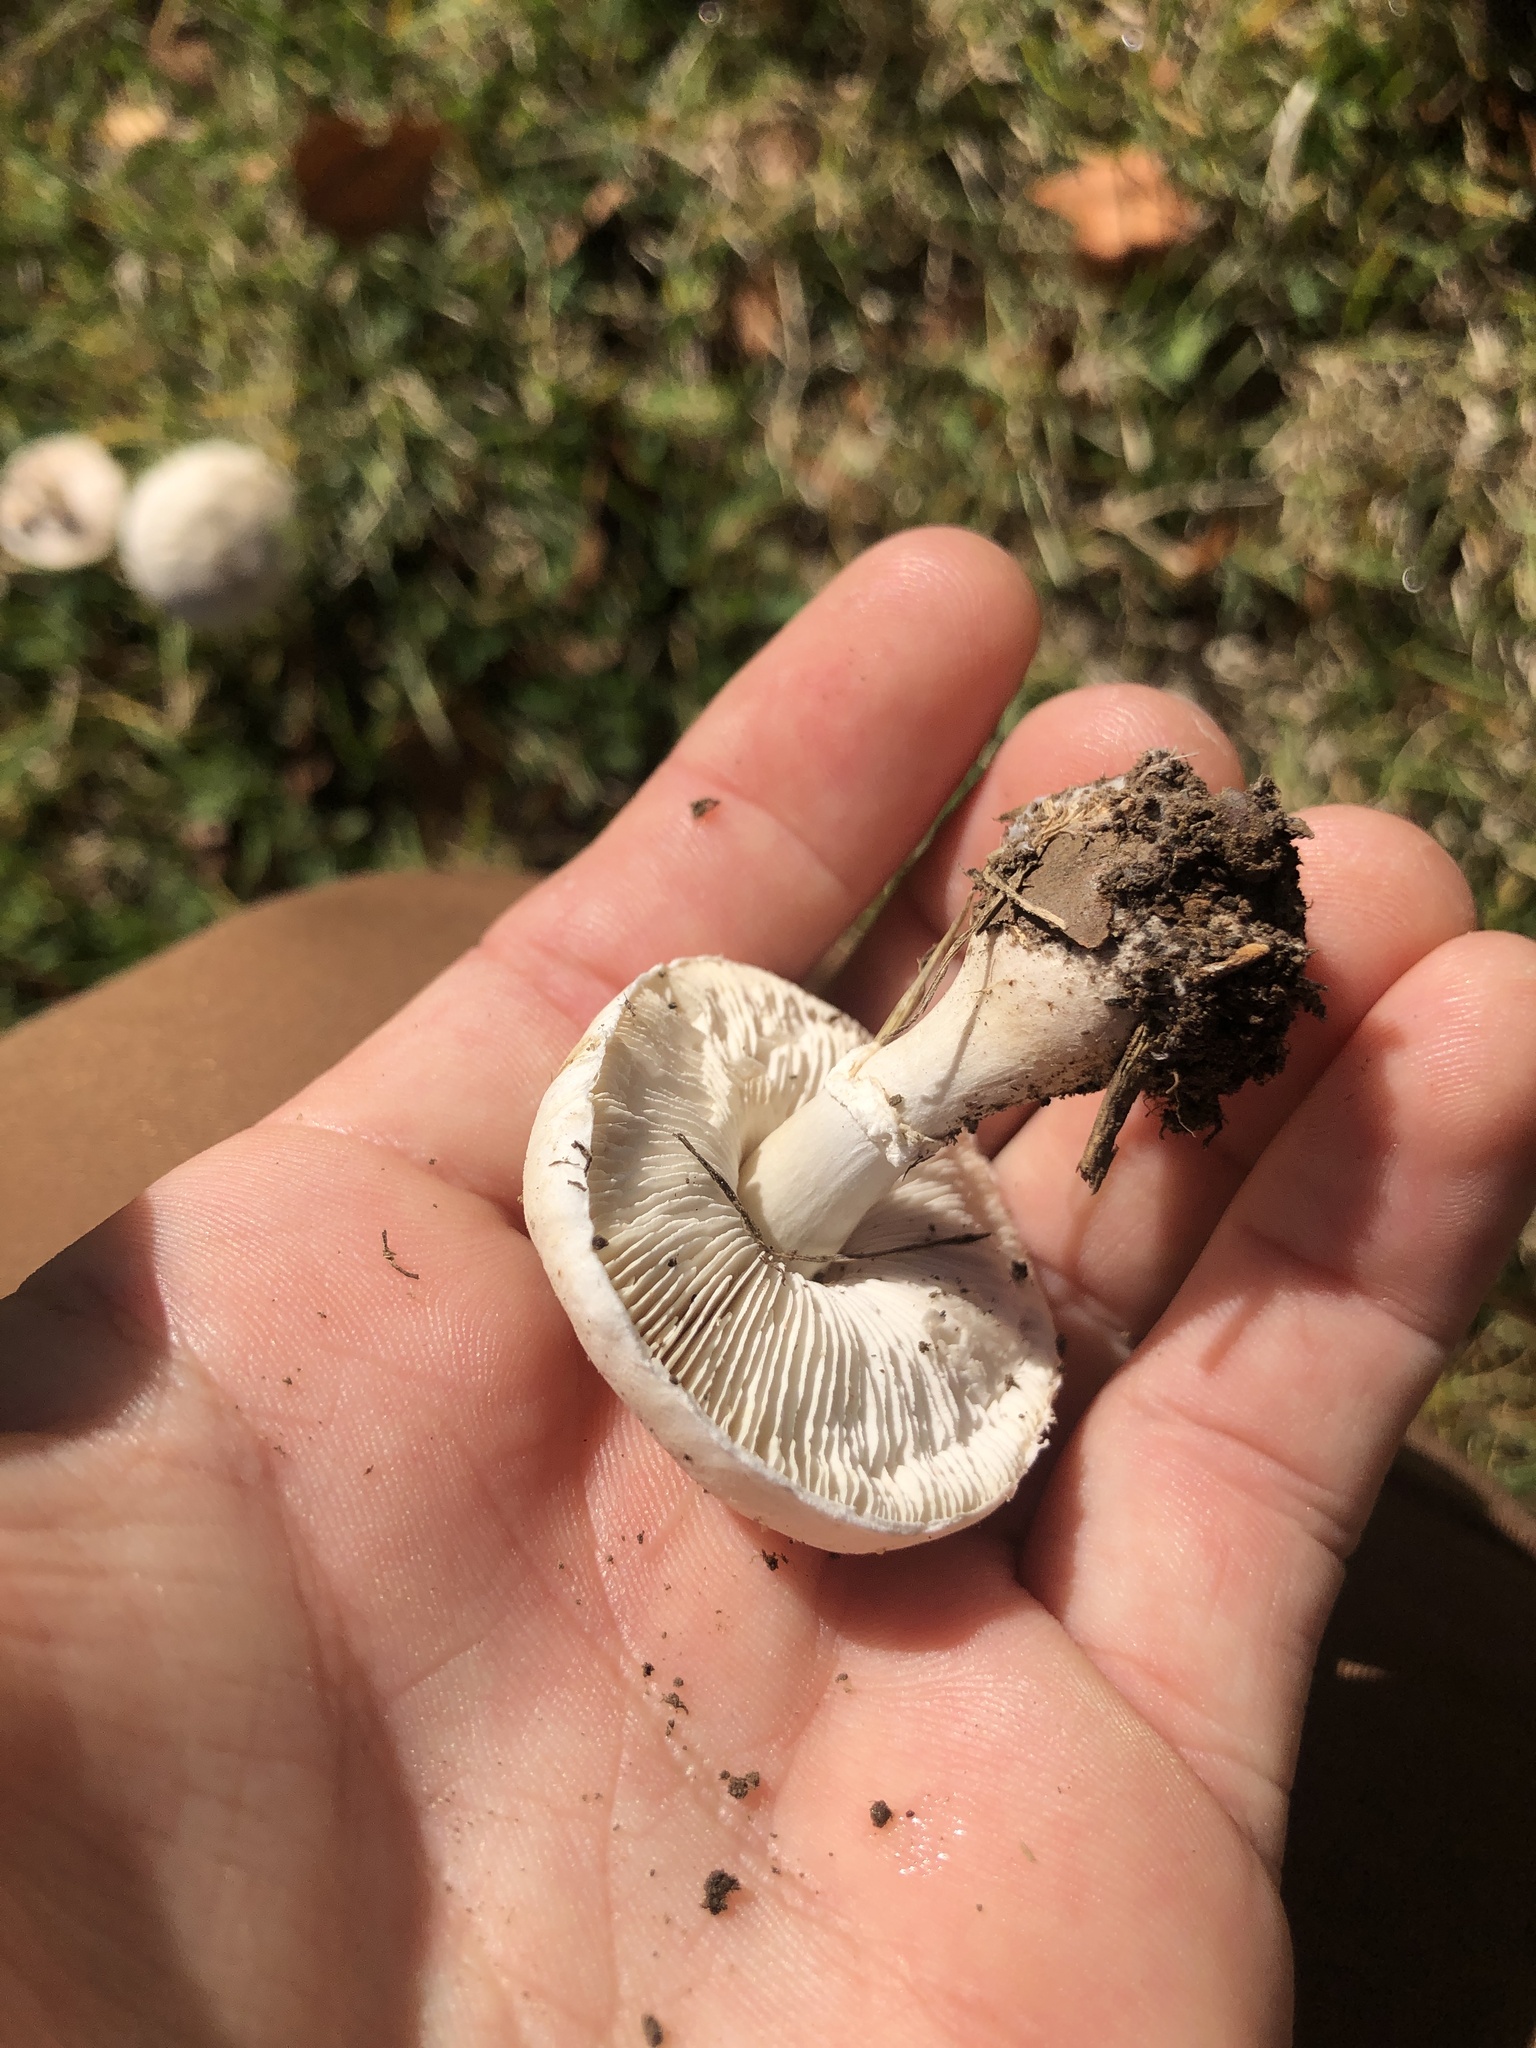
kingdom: Fungi
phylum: Basidiomycota
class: Agaricomycetes
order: Agaricales
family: Agaricaceae
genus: Leucoagaricus
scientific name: Leucoagaricus leucothites
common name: White dapperling
